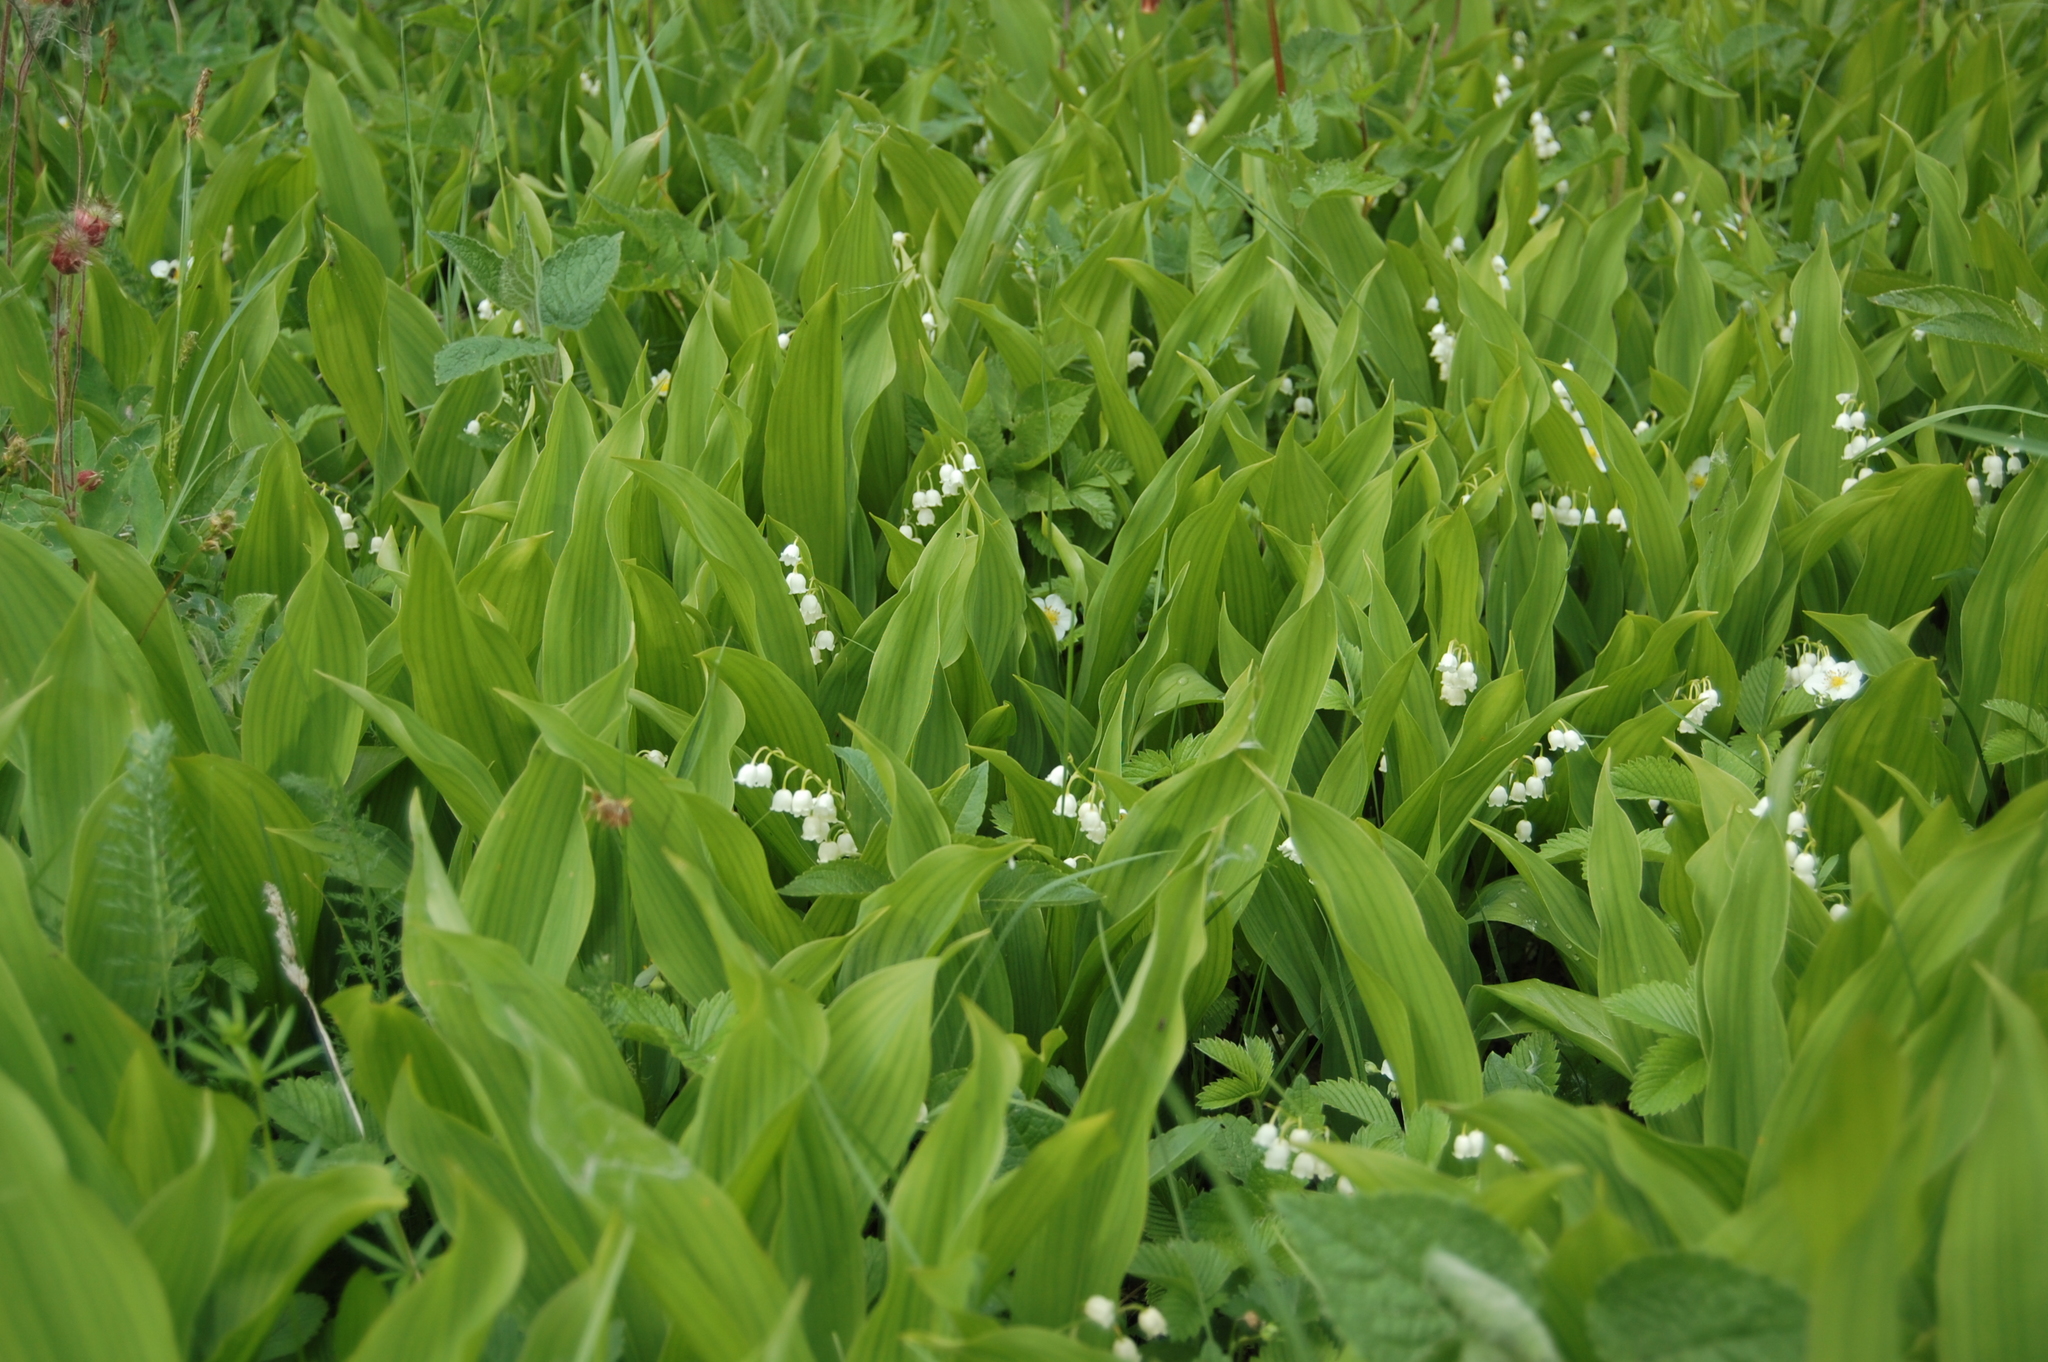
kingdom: Plantae
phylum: Tracheophyta
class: Liliopsida
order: Asparagales
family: Asparagaceae
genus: Convallaria
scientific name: Convallaria majalis
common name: Lily-of-the-valley
